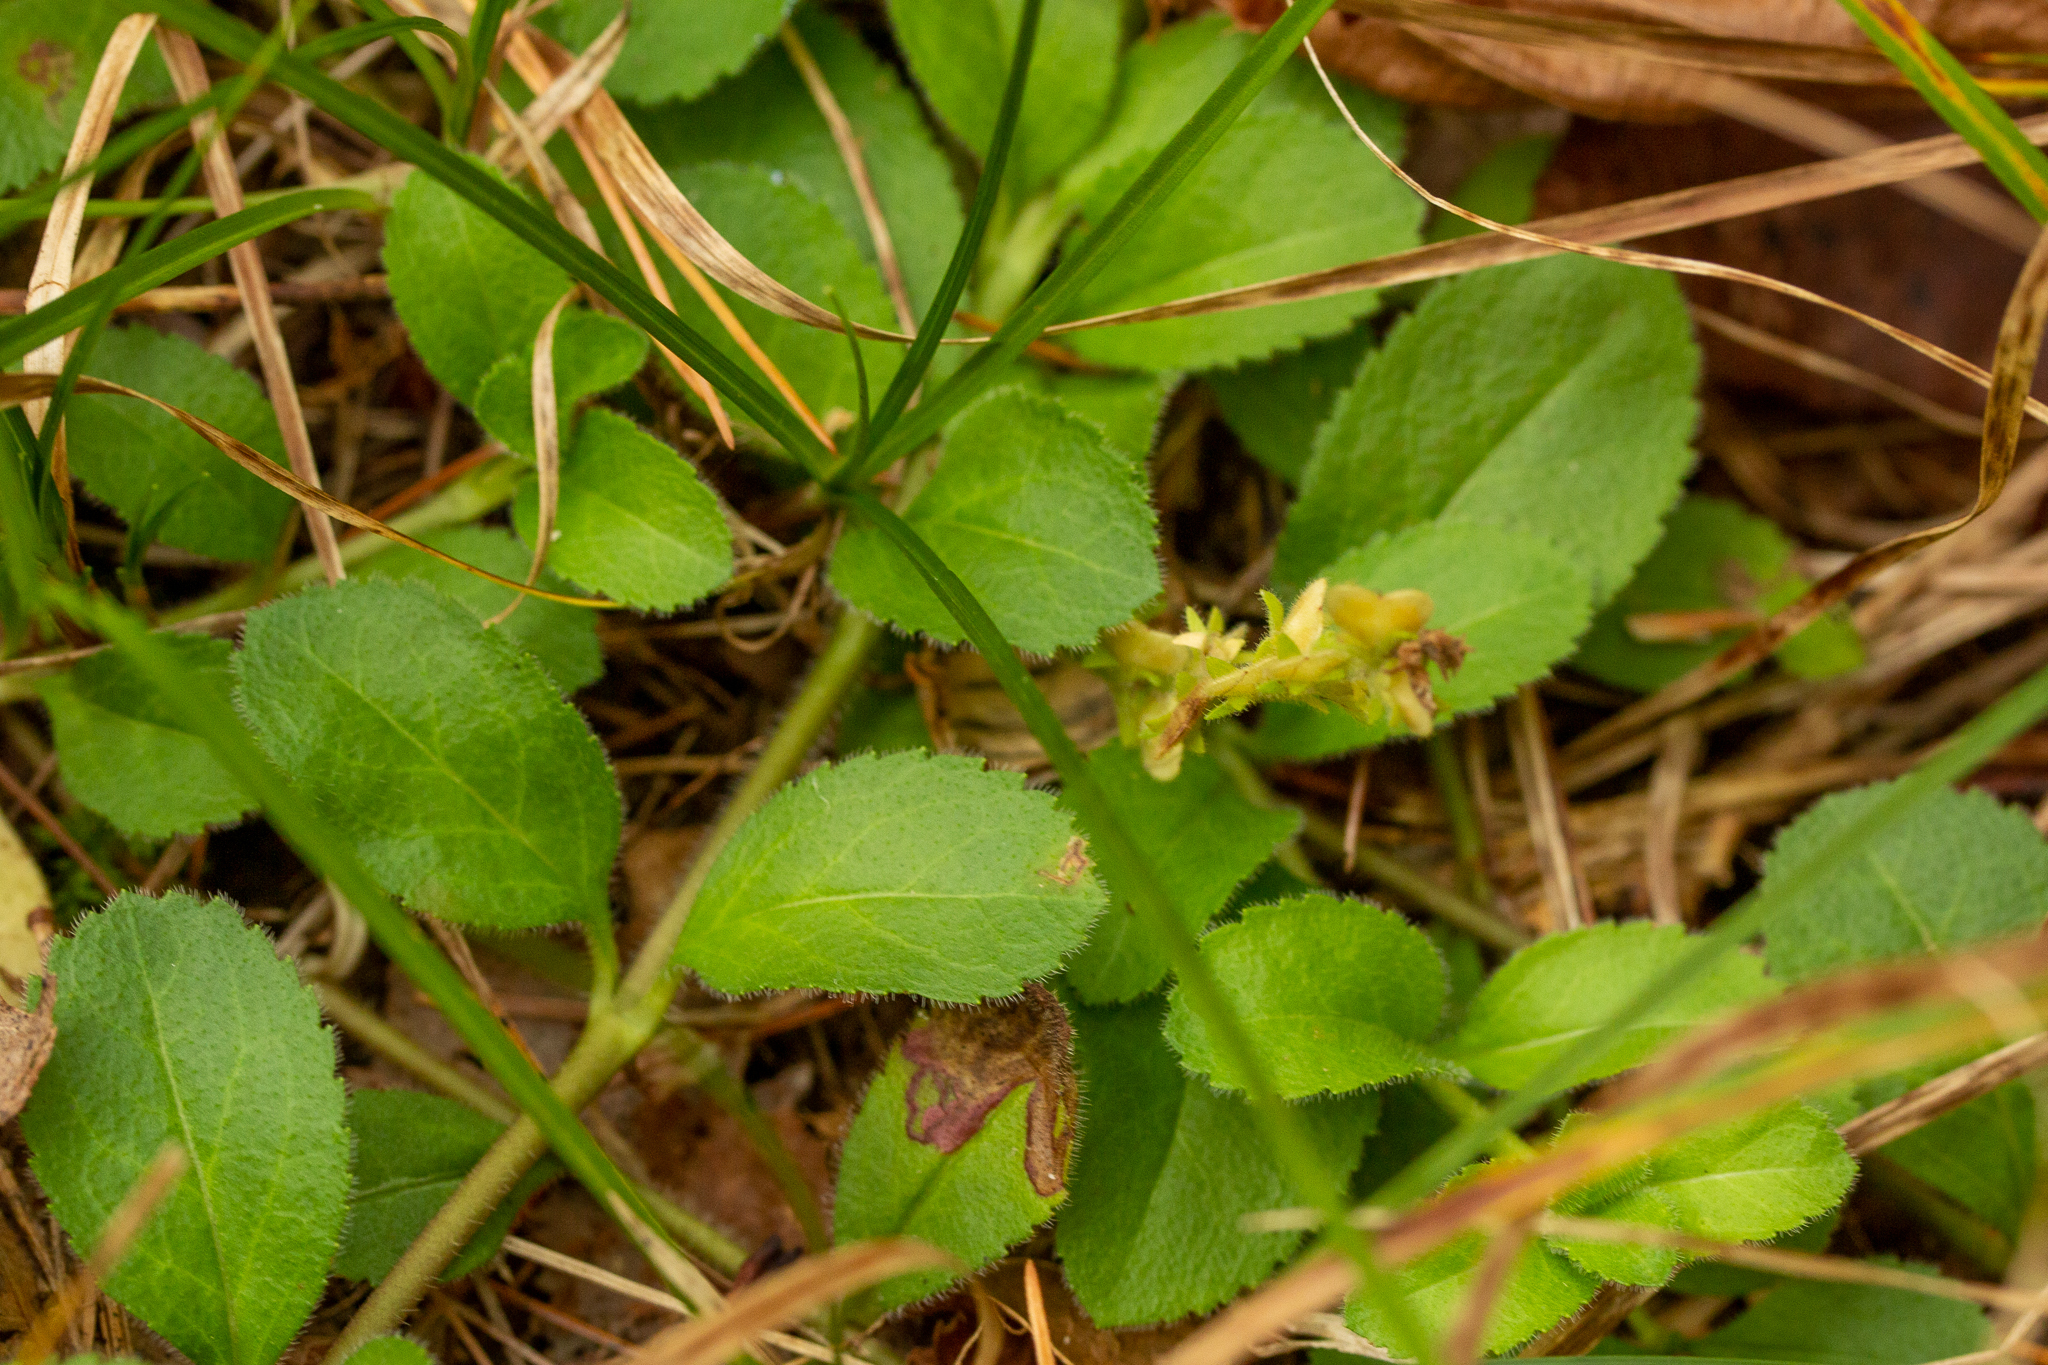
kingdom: Plantae
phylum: Tracheophyta
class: Magnoliopsida
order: Lamiales
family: Plantaginaceae
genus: Veronica
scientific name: Veronica officinalis
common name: Common speedwell
